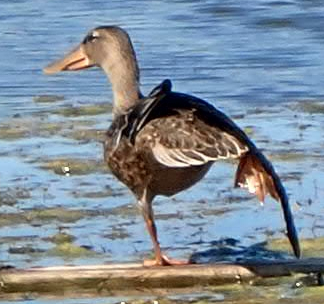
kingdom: Animalia
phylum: Chordata
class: Aves
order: Anseriformes
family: Anatidae
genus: Spatula
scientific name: Spatula clypeata
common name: Northern shoveler
